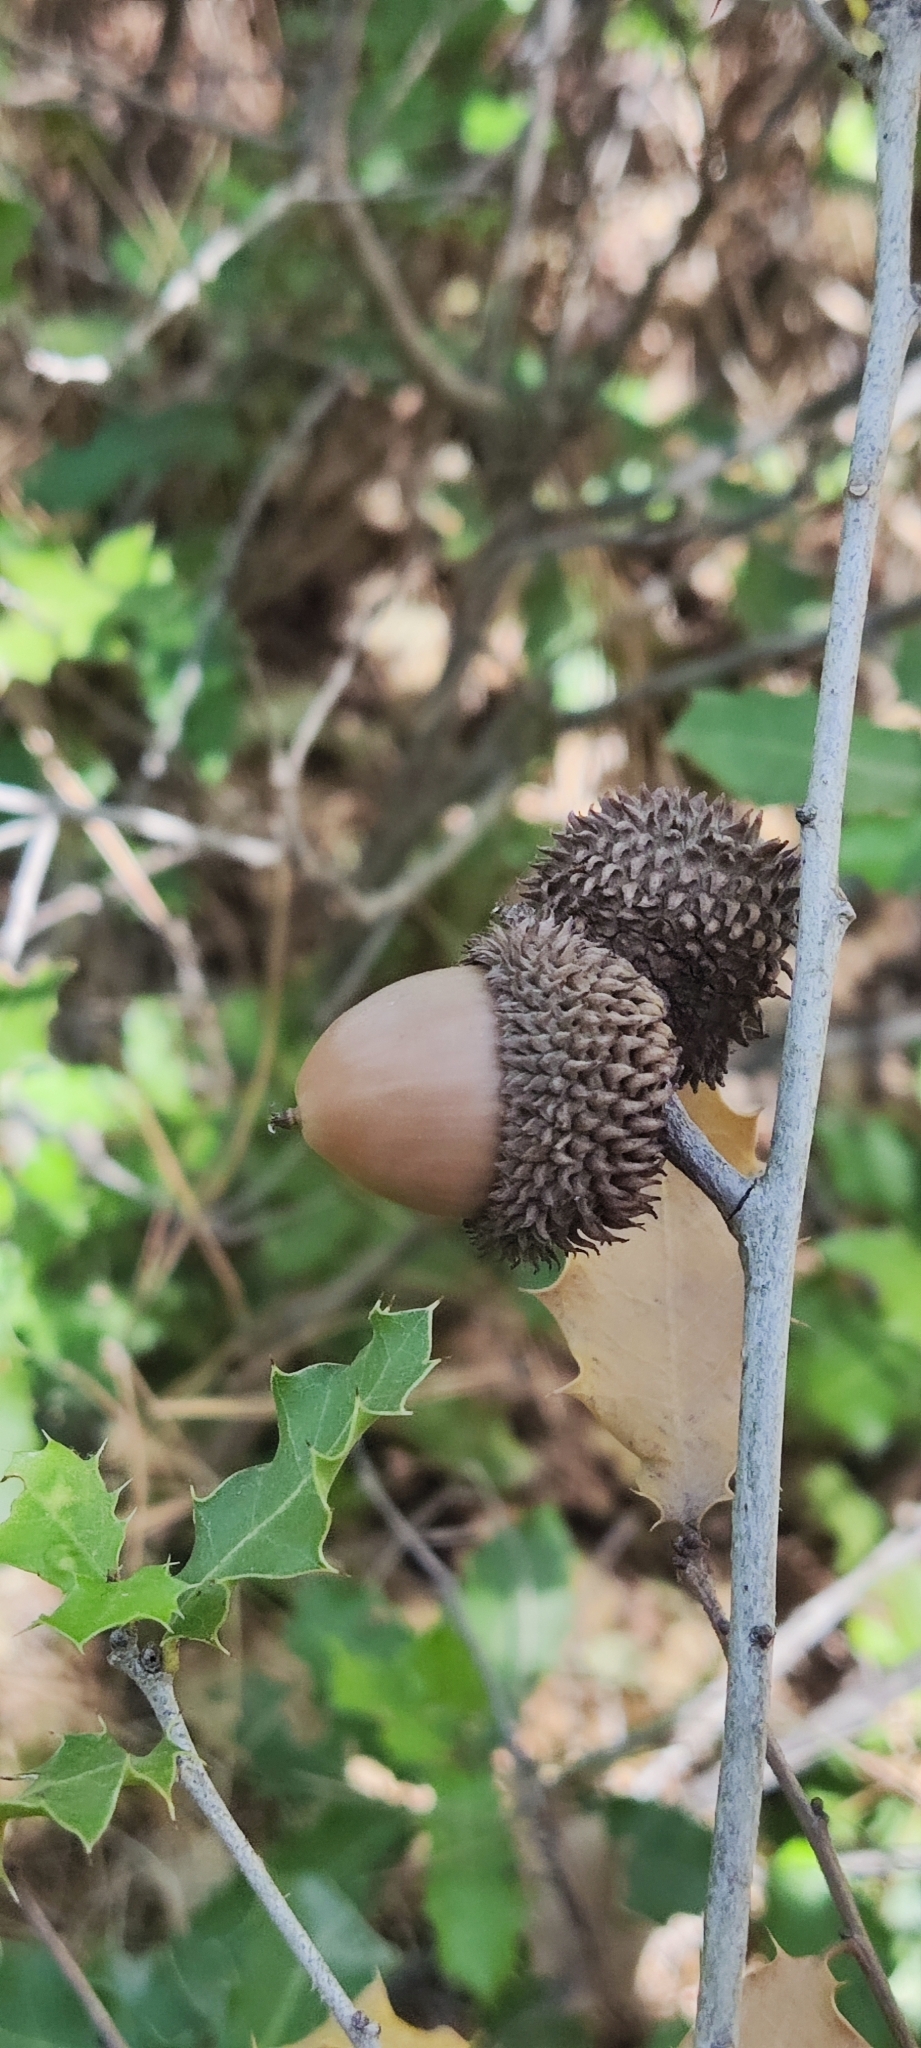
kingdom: Plantae
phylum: Tracheophyta
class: Magnoliopsida
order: Fagales
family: Fagaceae
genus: Quercus
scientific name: Quercus coccifera
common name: Kermes oak
